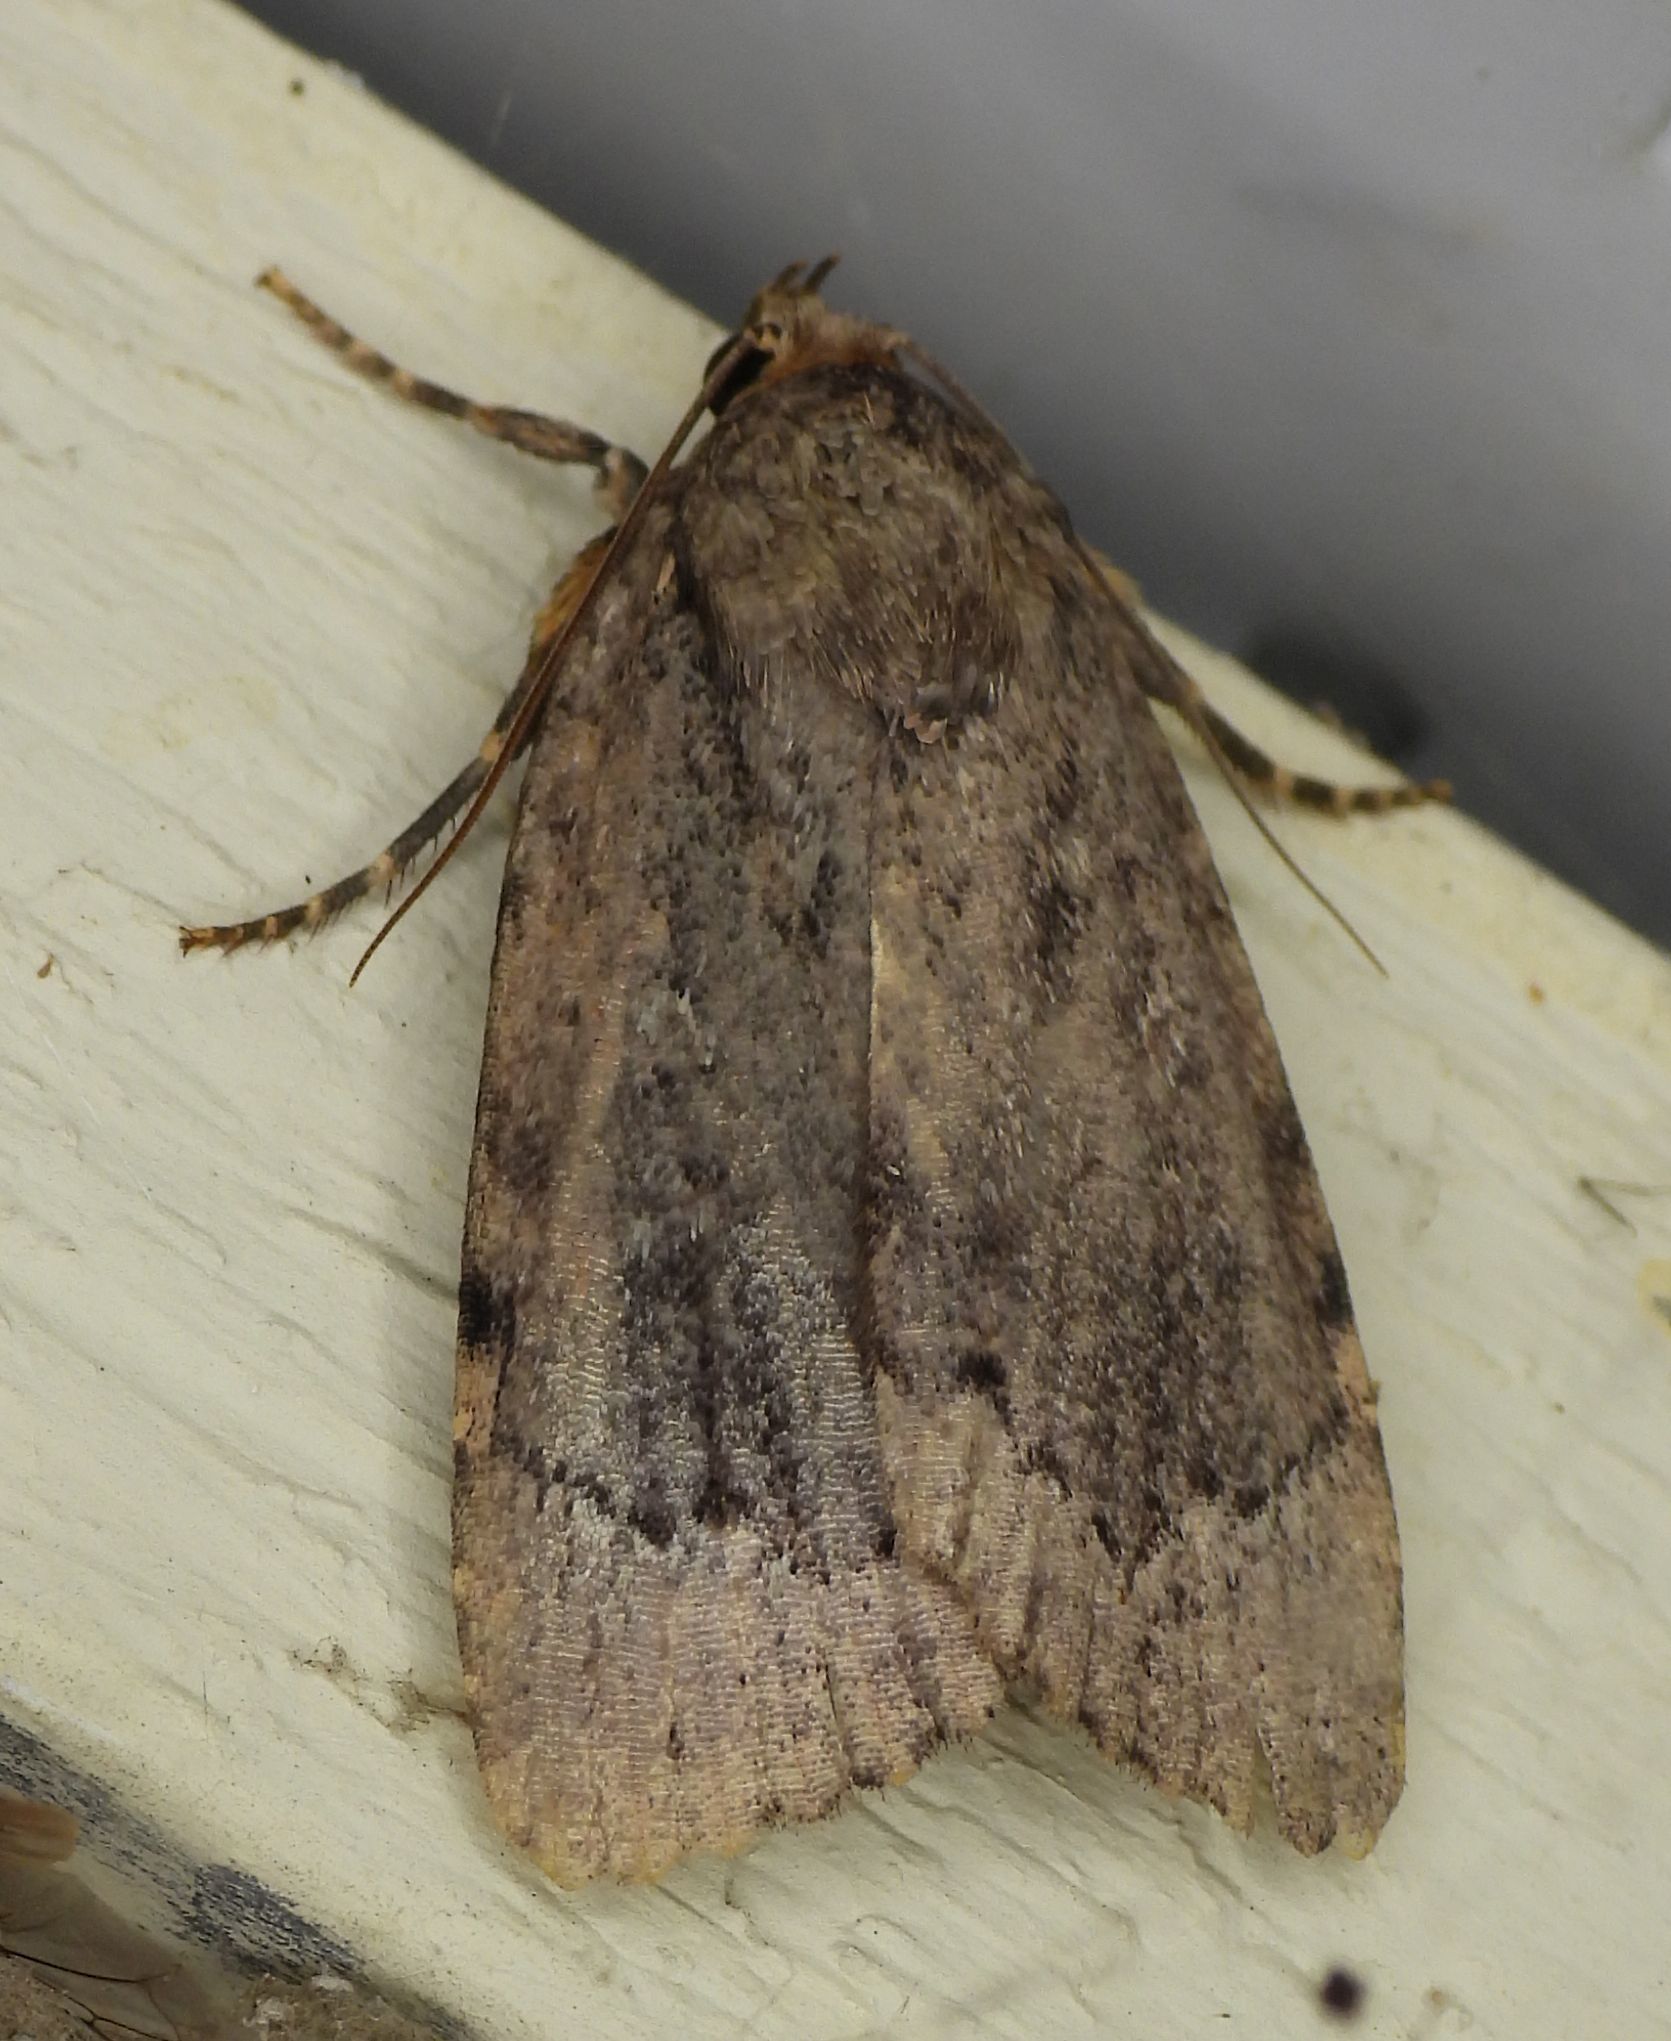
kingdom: Animalia
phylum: Arthropoda
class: Insecta
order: Lepidoptera
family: Noctuidae
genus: Amphipyra
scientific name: Amphipyra pyramidoides
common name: American copper underwing
